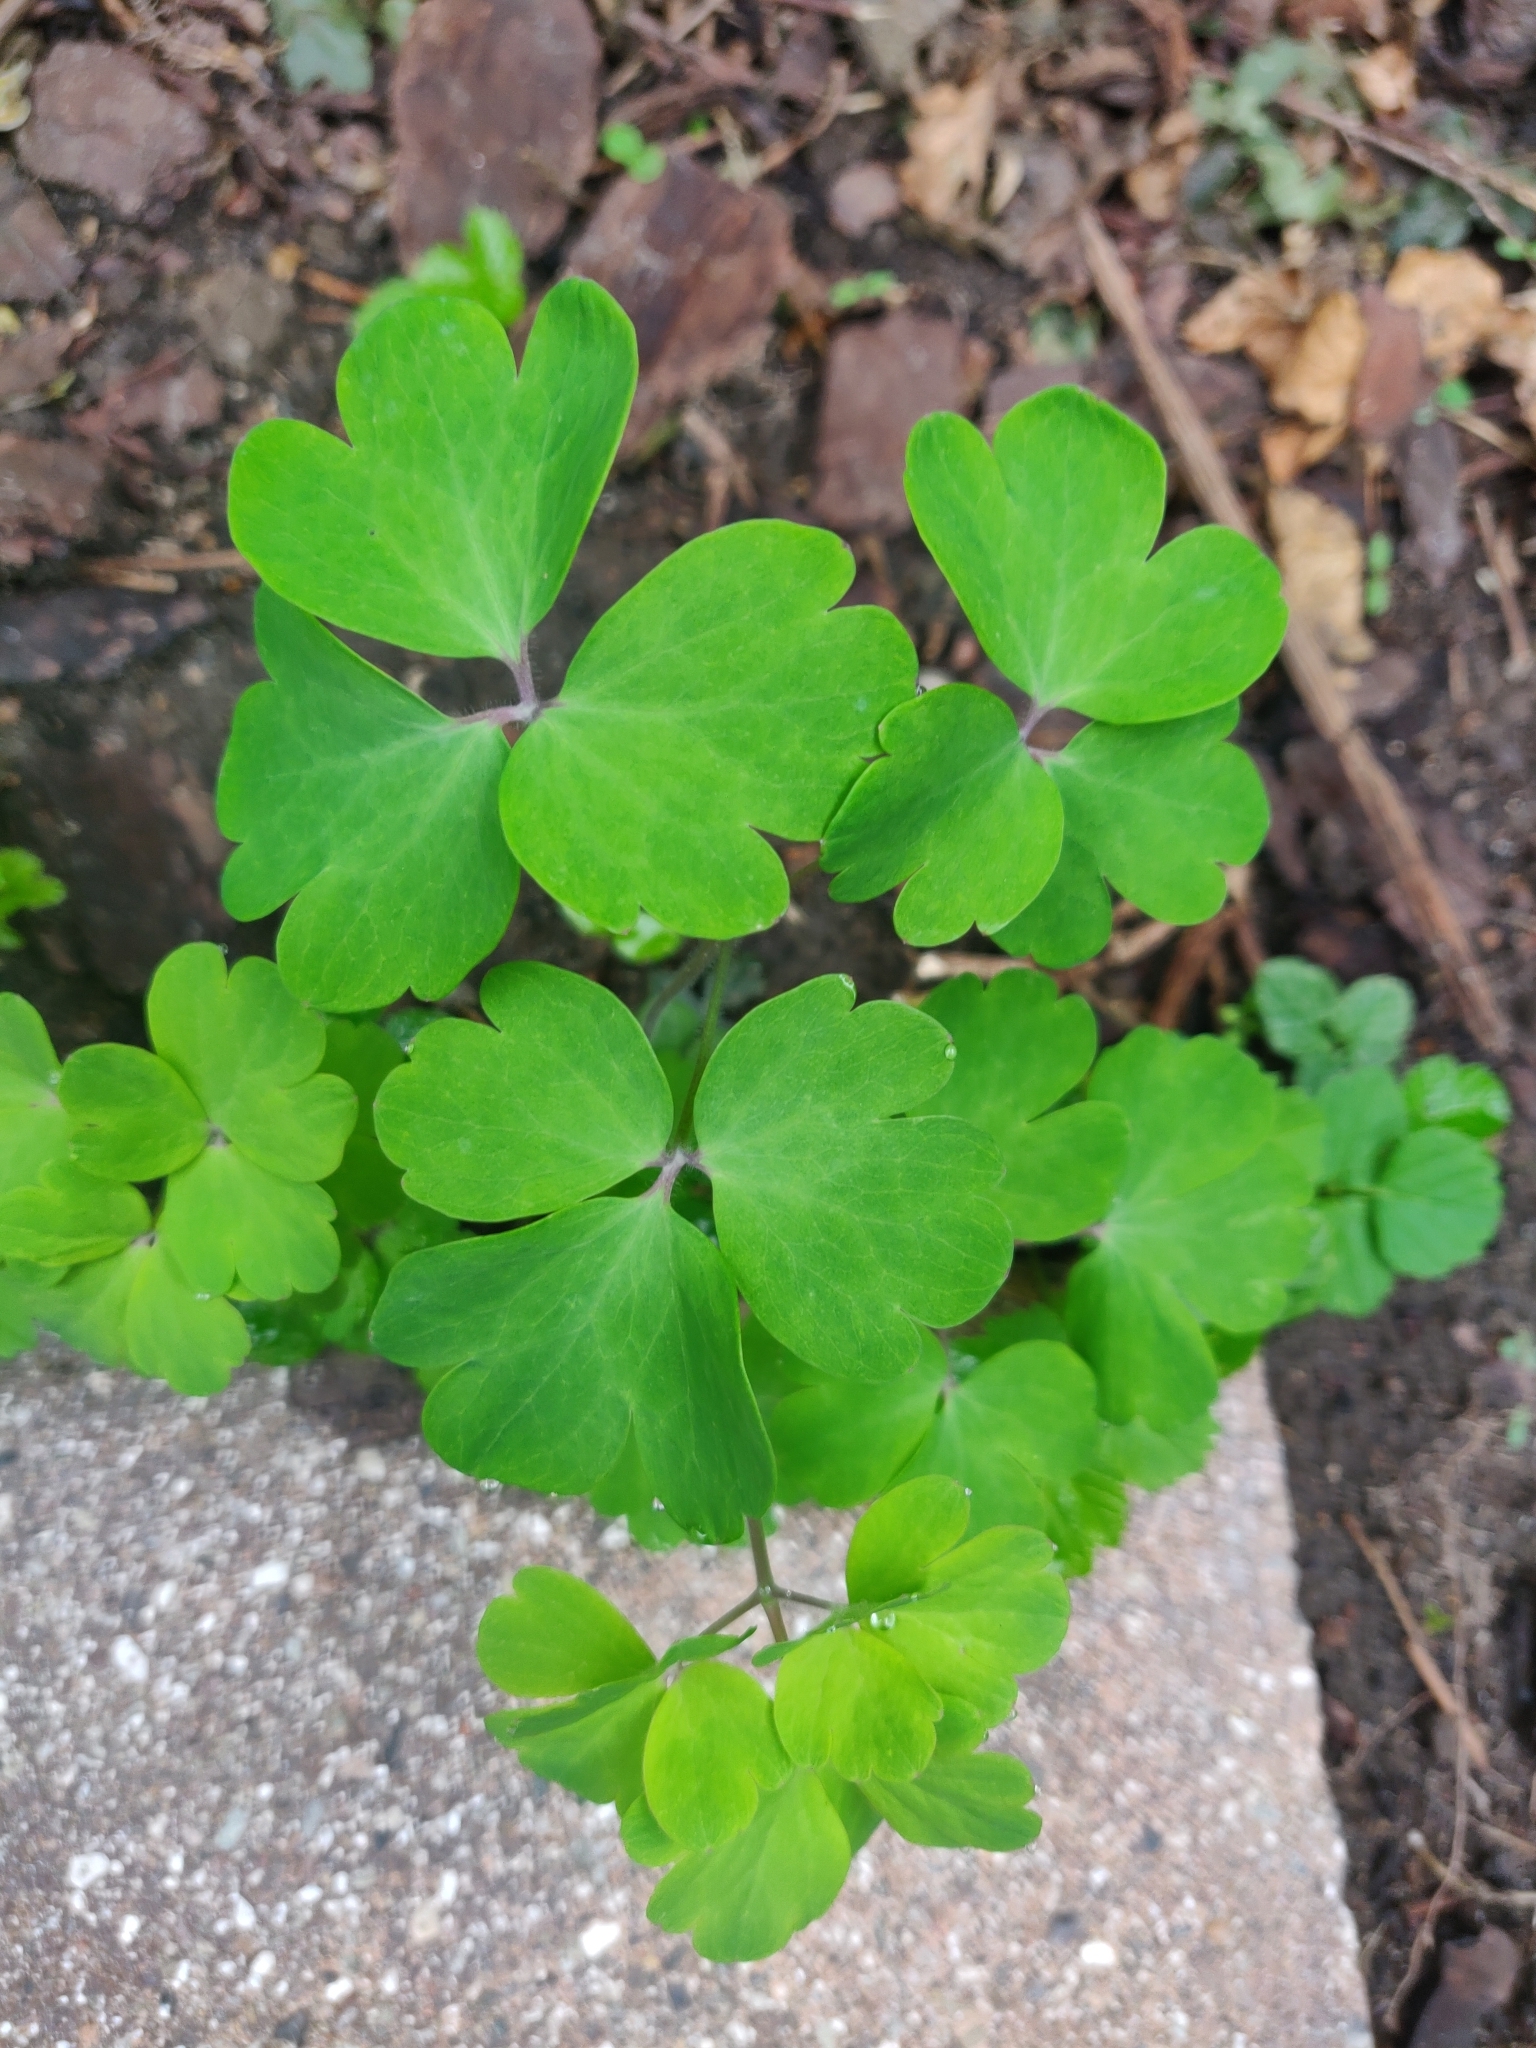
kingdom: Plantae
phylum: Tracheophyta
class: Magnoliopsida
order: Ranunculales
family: Ranunculaceae
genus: Aquilegia
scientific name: Aquilegia vulgaris
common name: Columbine
